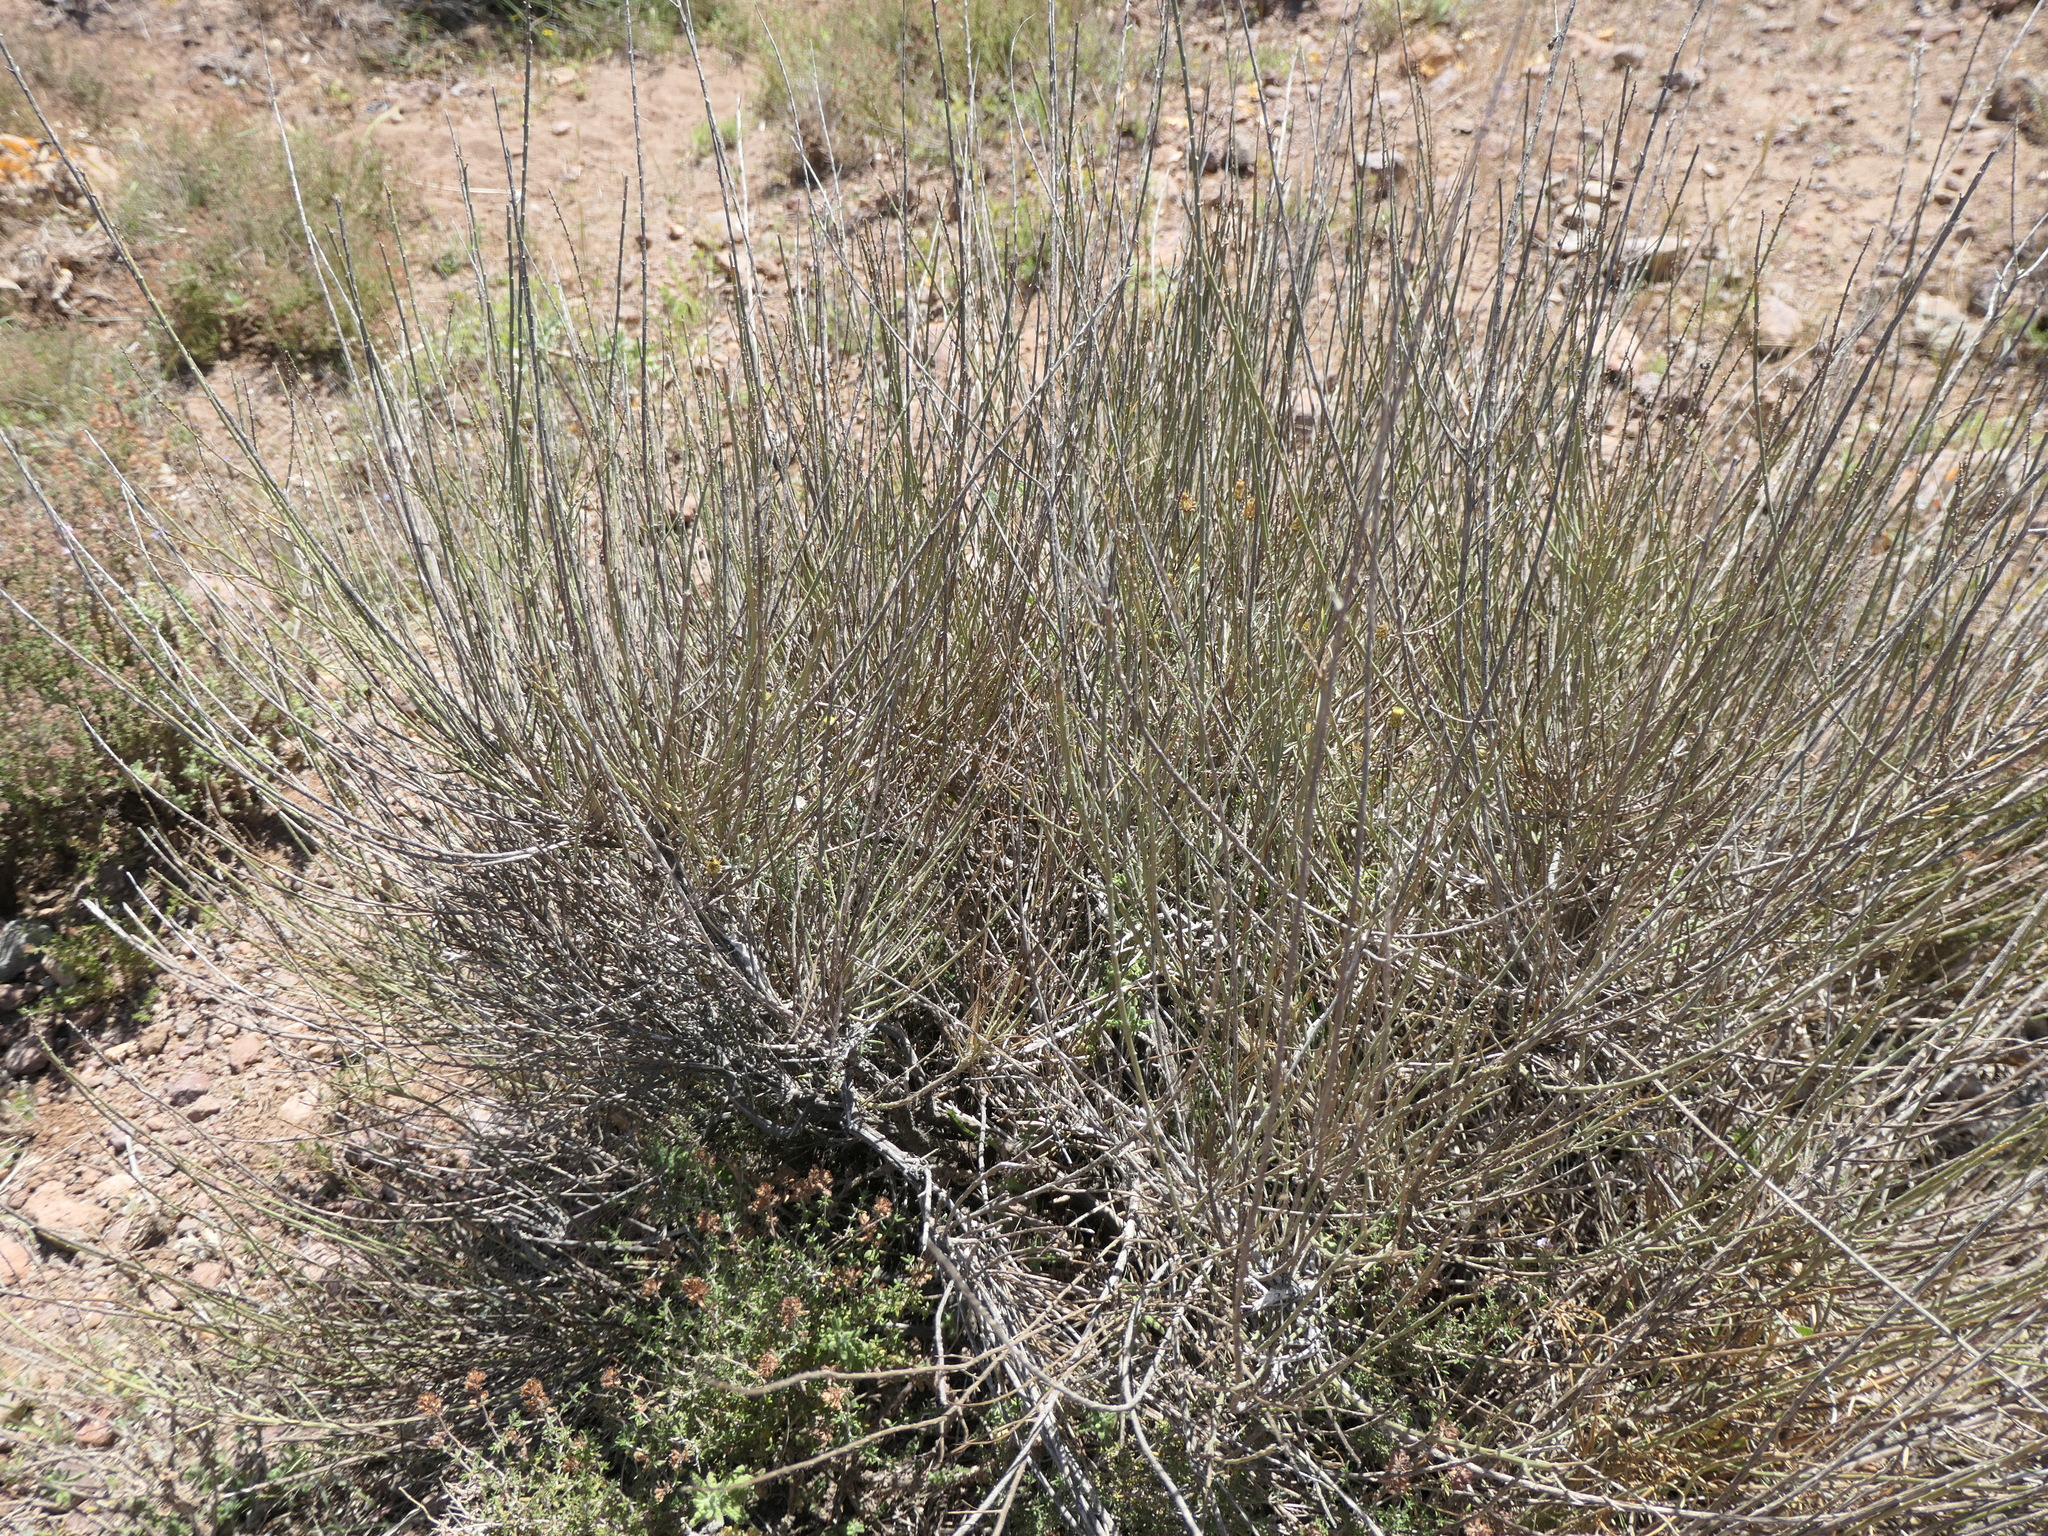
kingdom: Plantae
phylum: Tracheophyta
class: Magnoliopsida
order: Caryophyllales
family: Amaranthaceae
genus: Caroxylon
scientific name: Caroxylon genistoides
